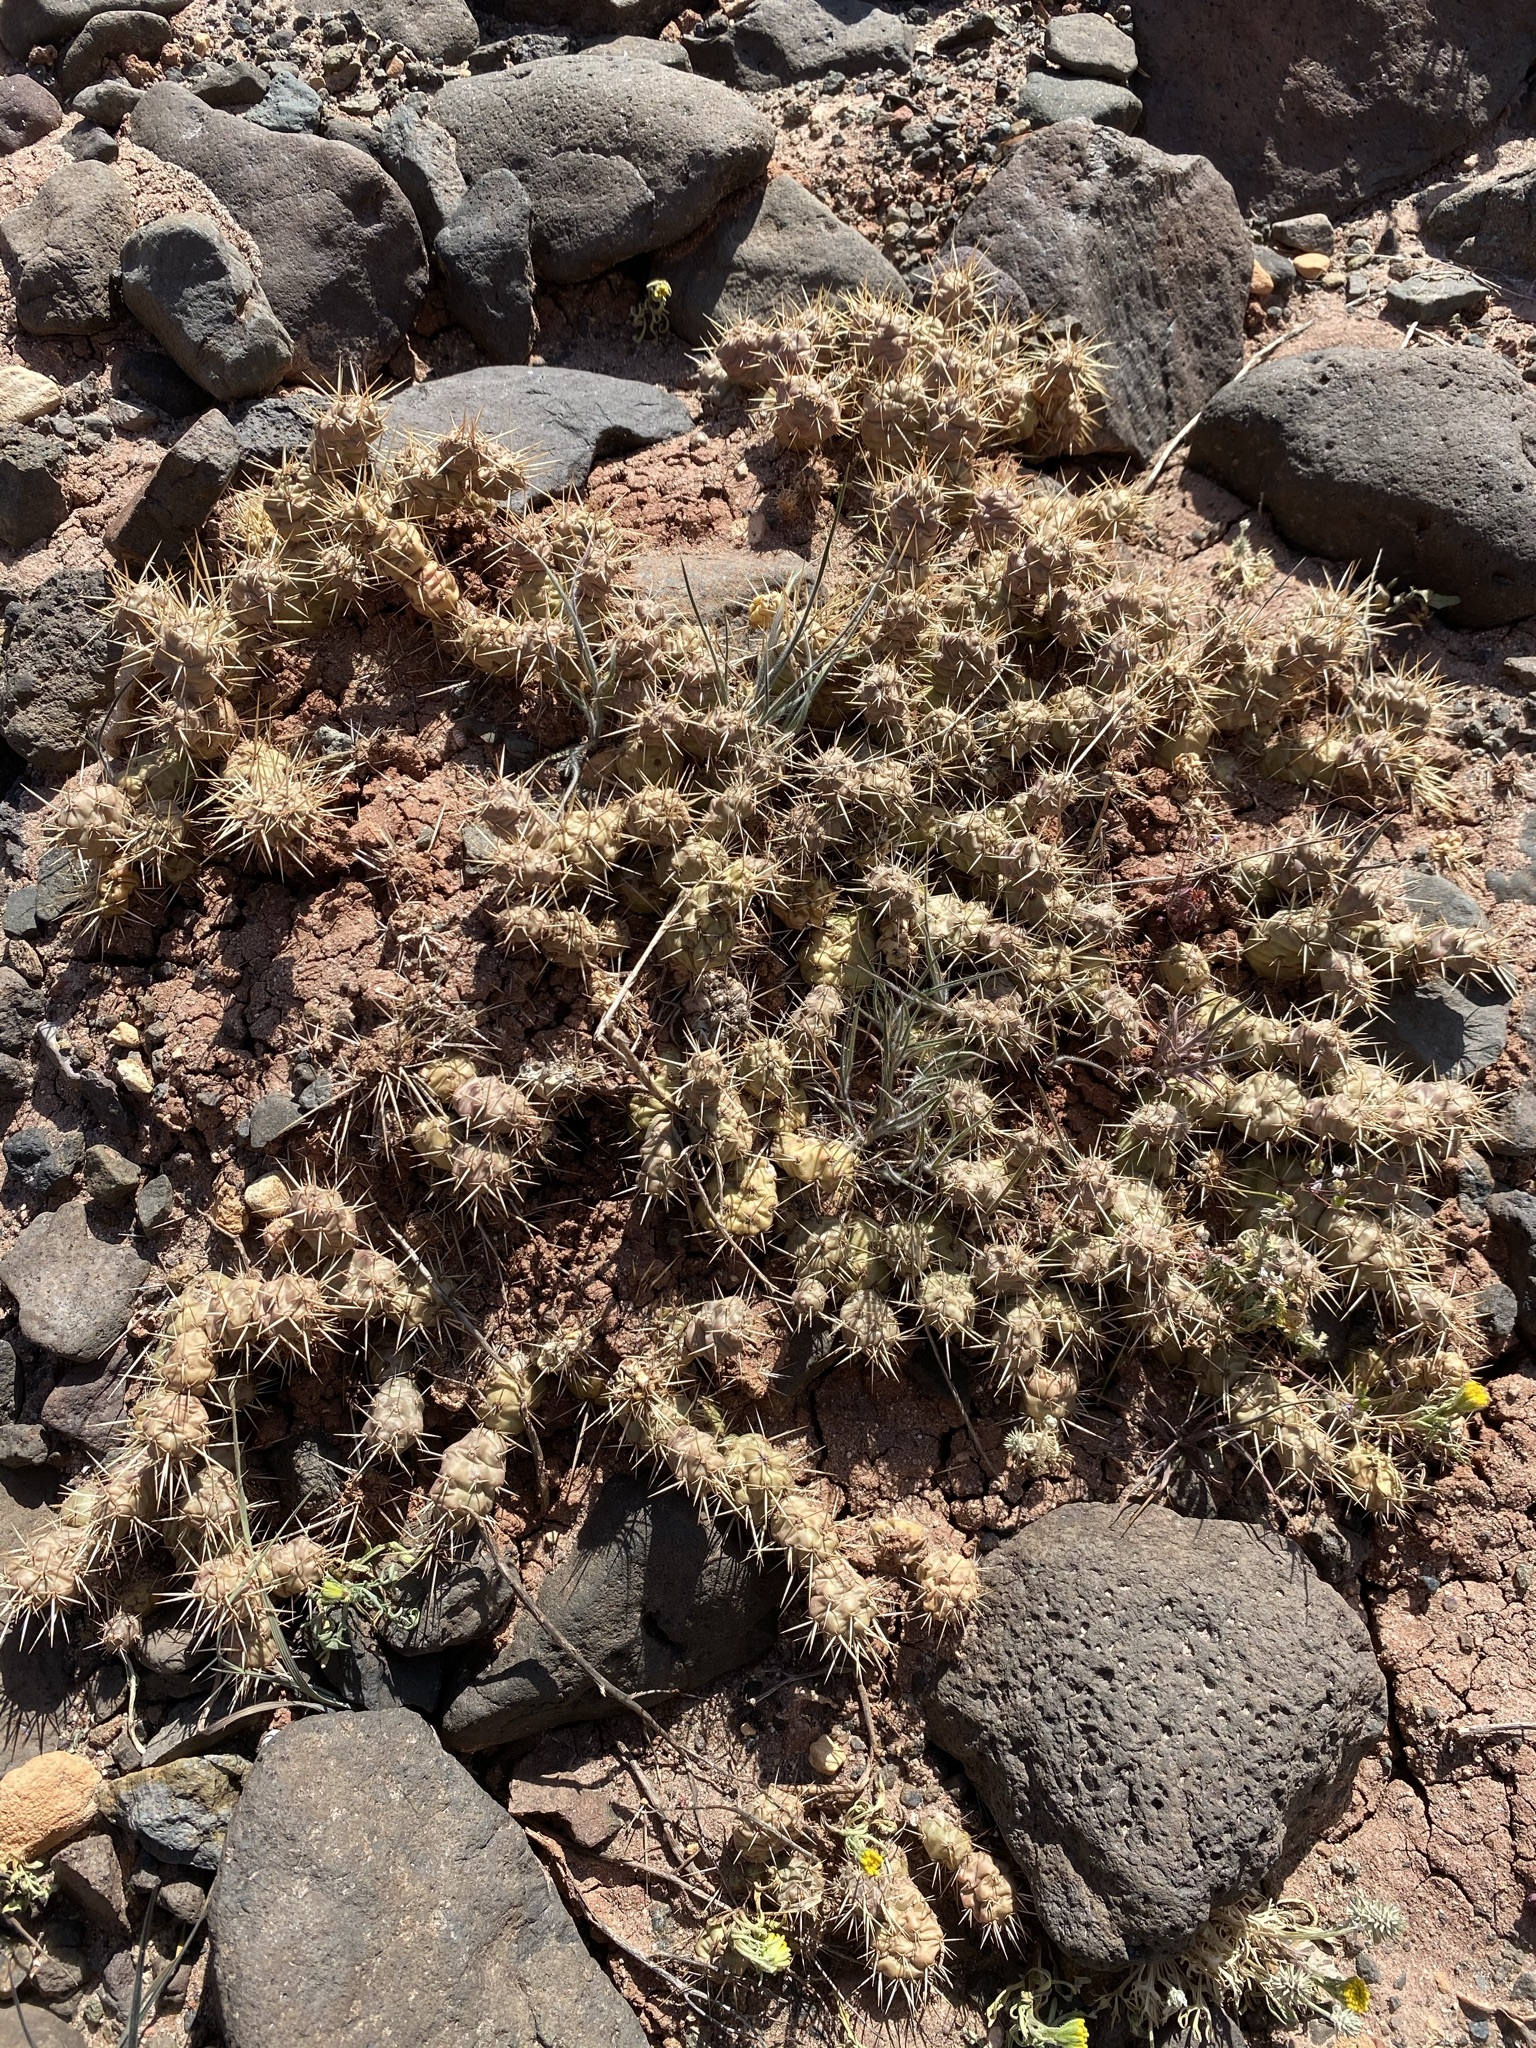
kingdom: Plantae
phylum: Tracheophyta
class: Magnoliopsida
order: Caryophyllales
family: Cactaceae
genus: Opuntia
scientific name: Opuntia fragilis
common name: Brittle cactus
